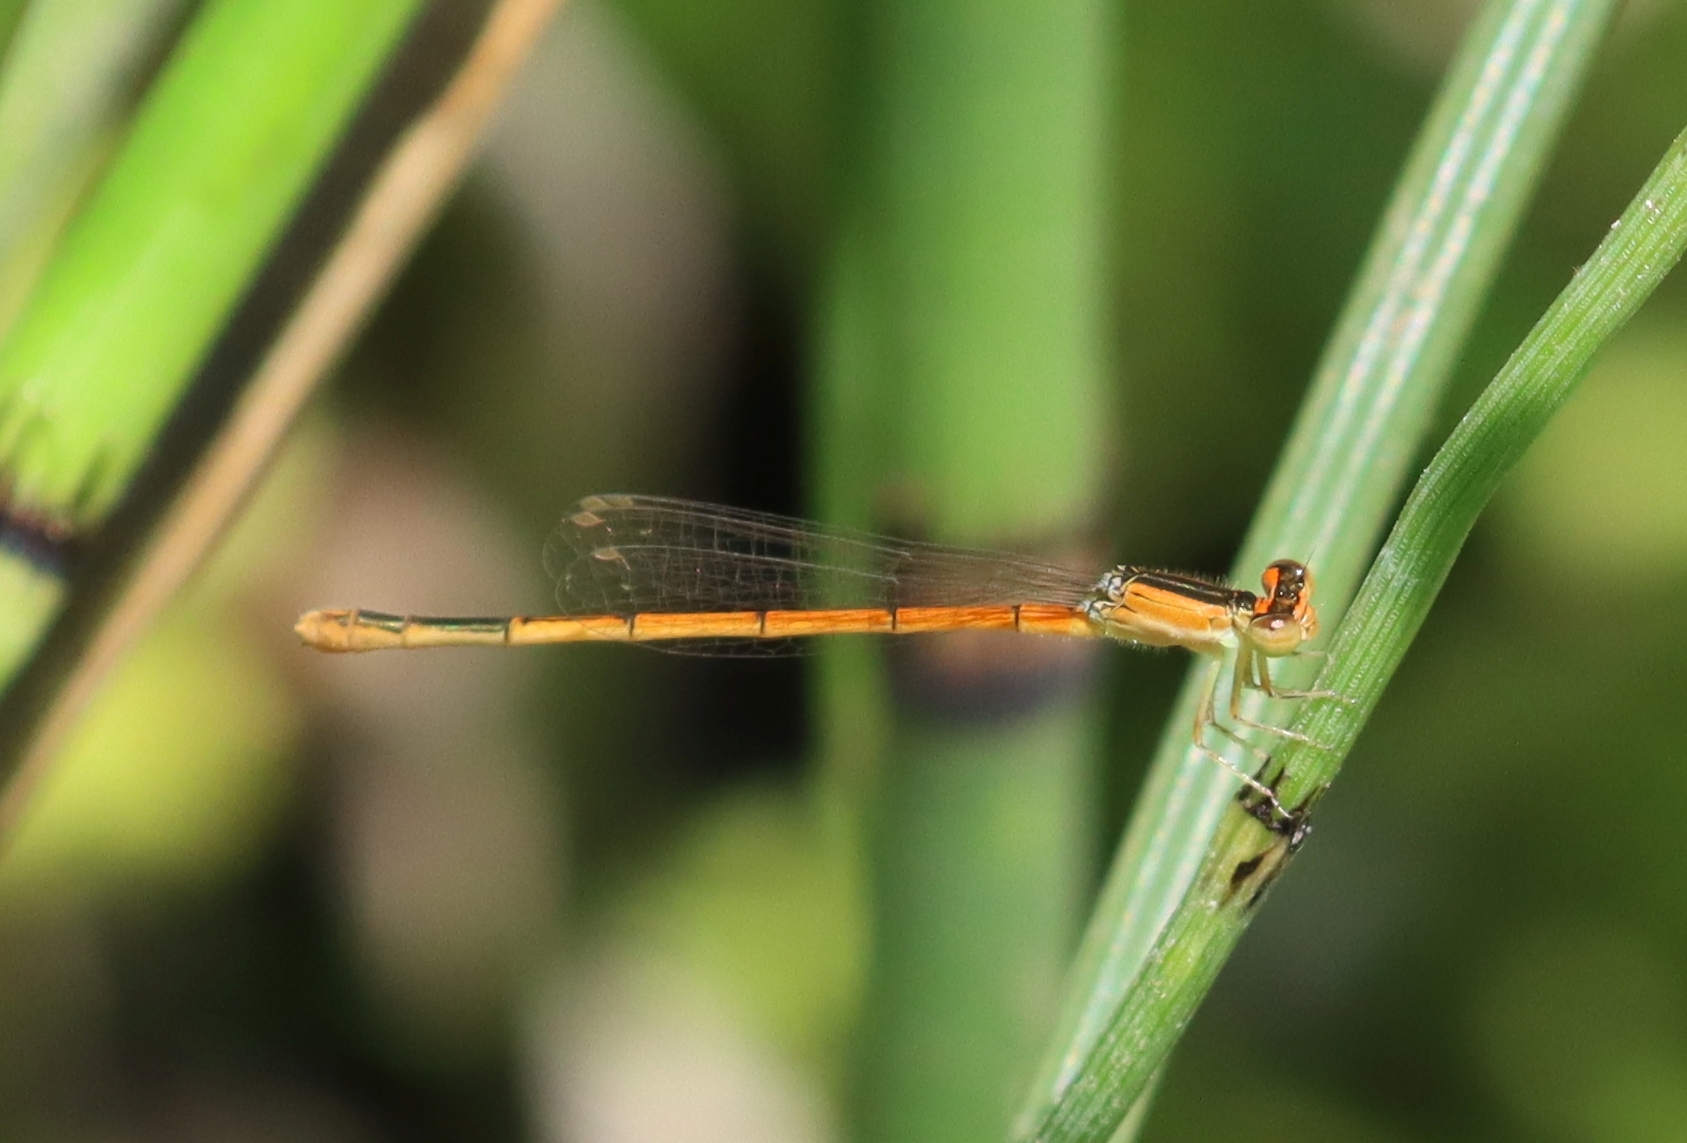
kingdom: Animalia
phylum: Arthropoda
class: Insecta
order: Odonata
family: Coenagrionidae
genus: Ischnura
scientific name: Ischnura hastata
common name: Citrine forktail
